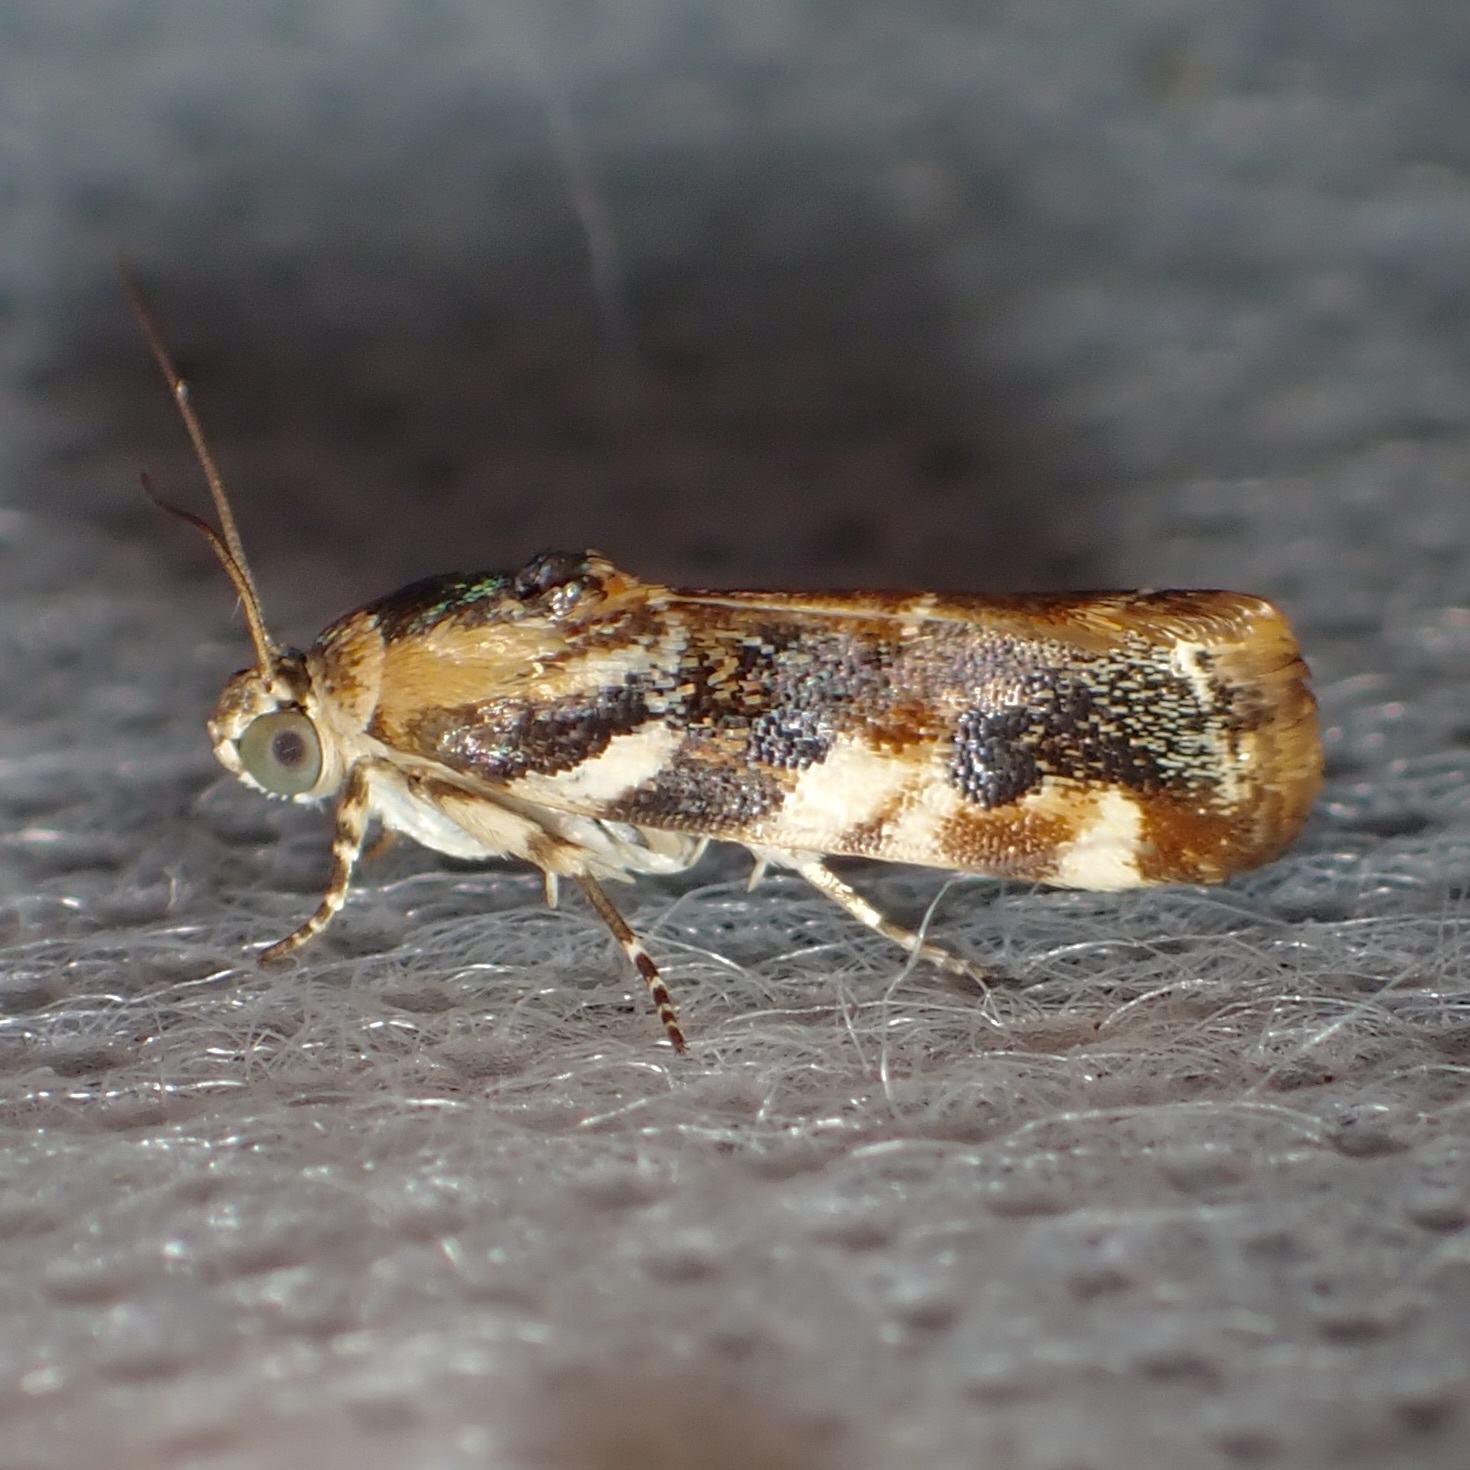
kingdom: Animalia
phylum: Arthropoda
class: Insecta
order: Lepidoptera
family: Noctuidae
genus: Spragueia
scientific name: Spragueia jaguaralis
